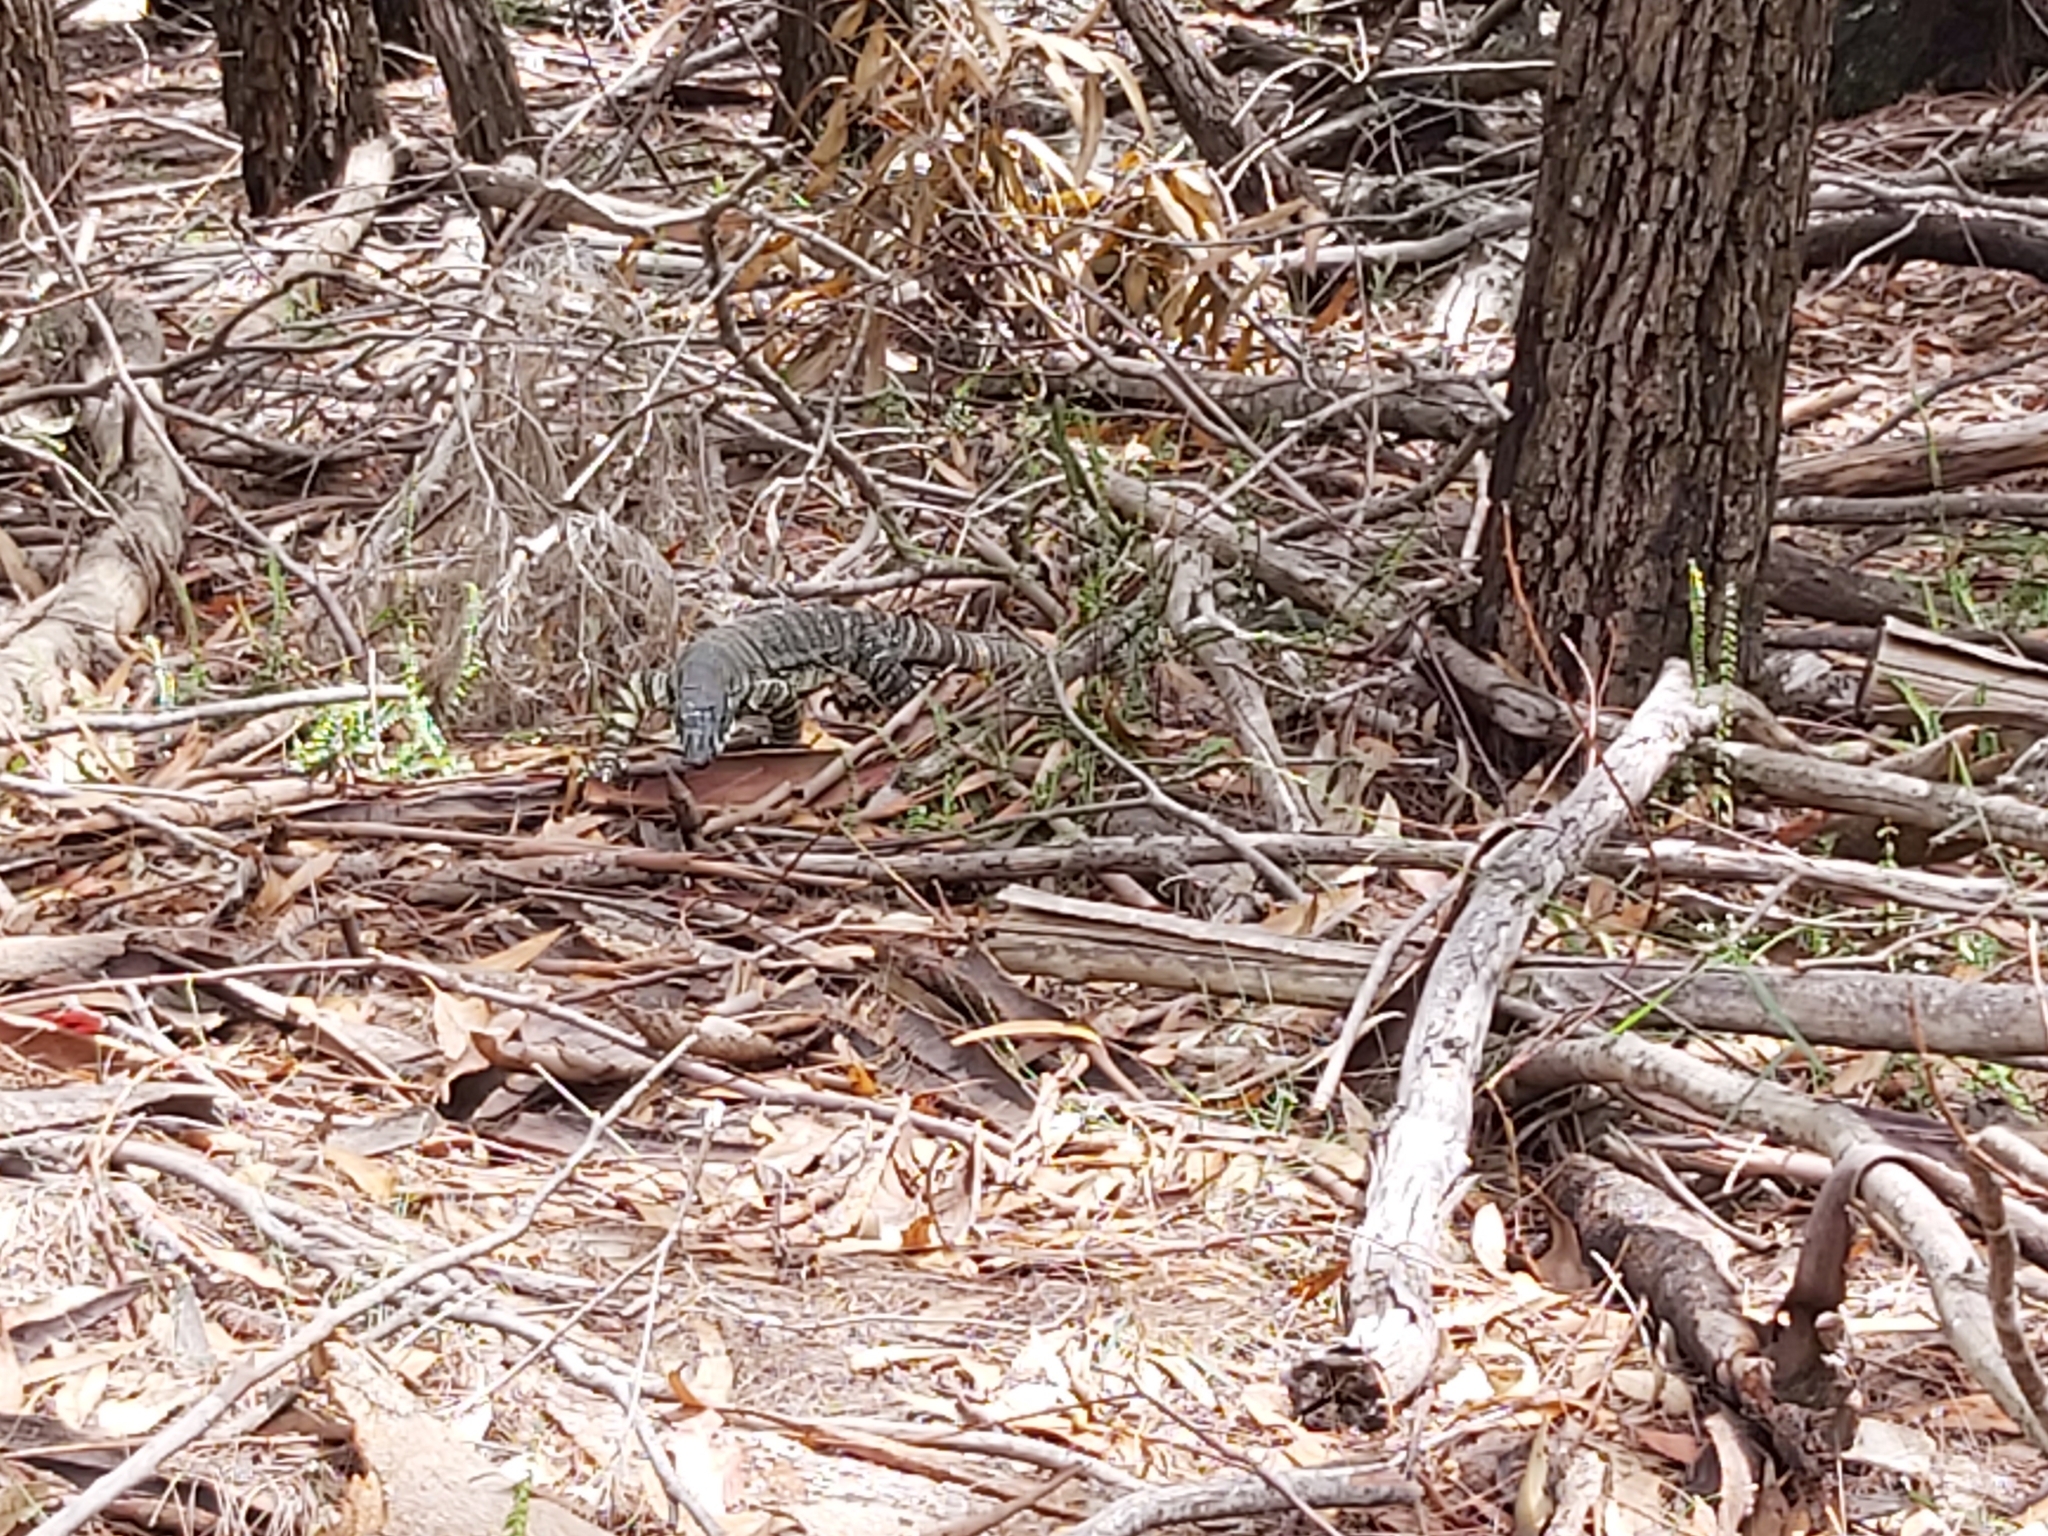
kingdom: Animalia
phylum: Chordata
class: Squamata
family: Varanidae
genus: Varanus
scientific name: Varanus varius
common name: Lace monitor
